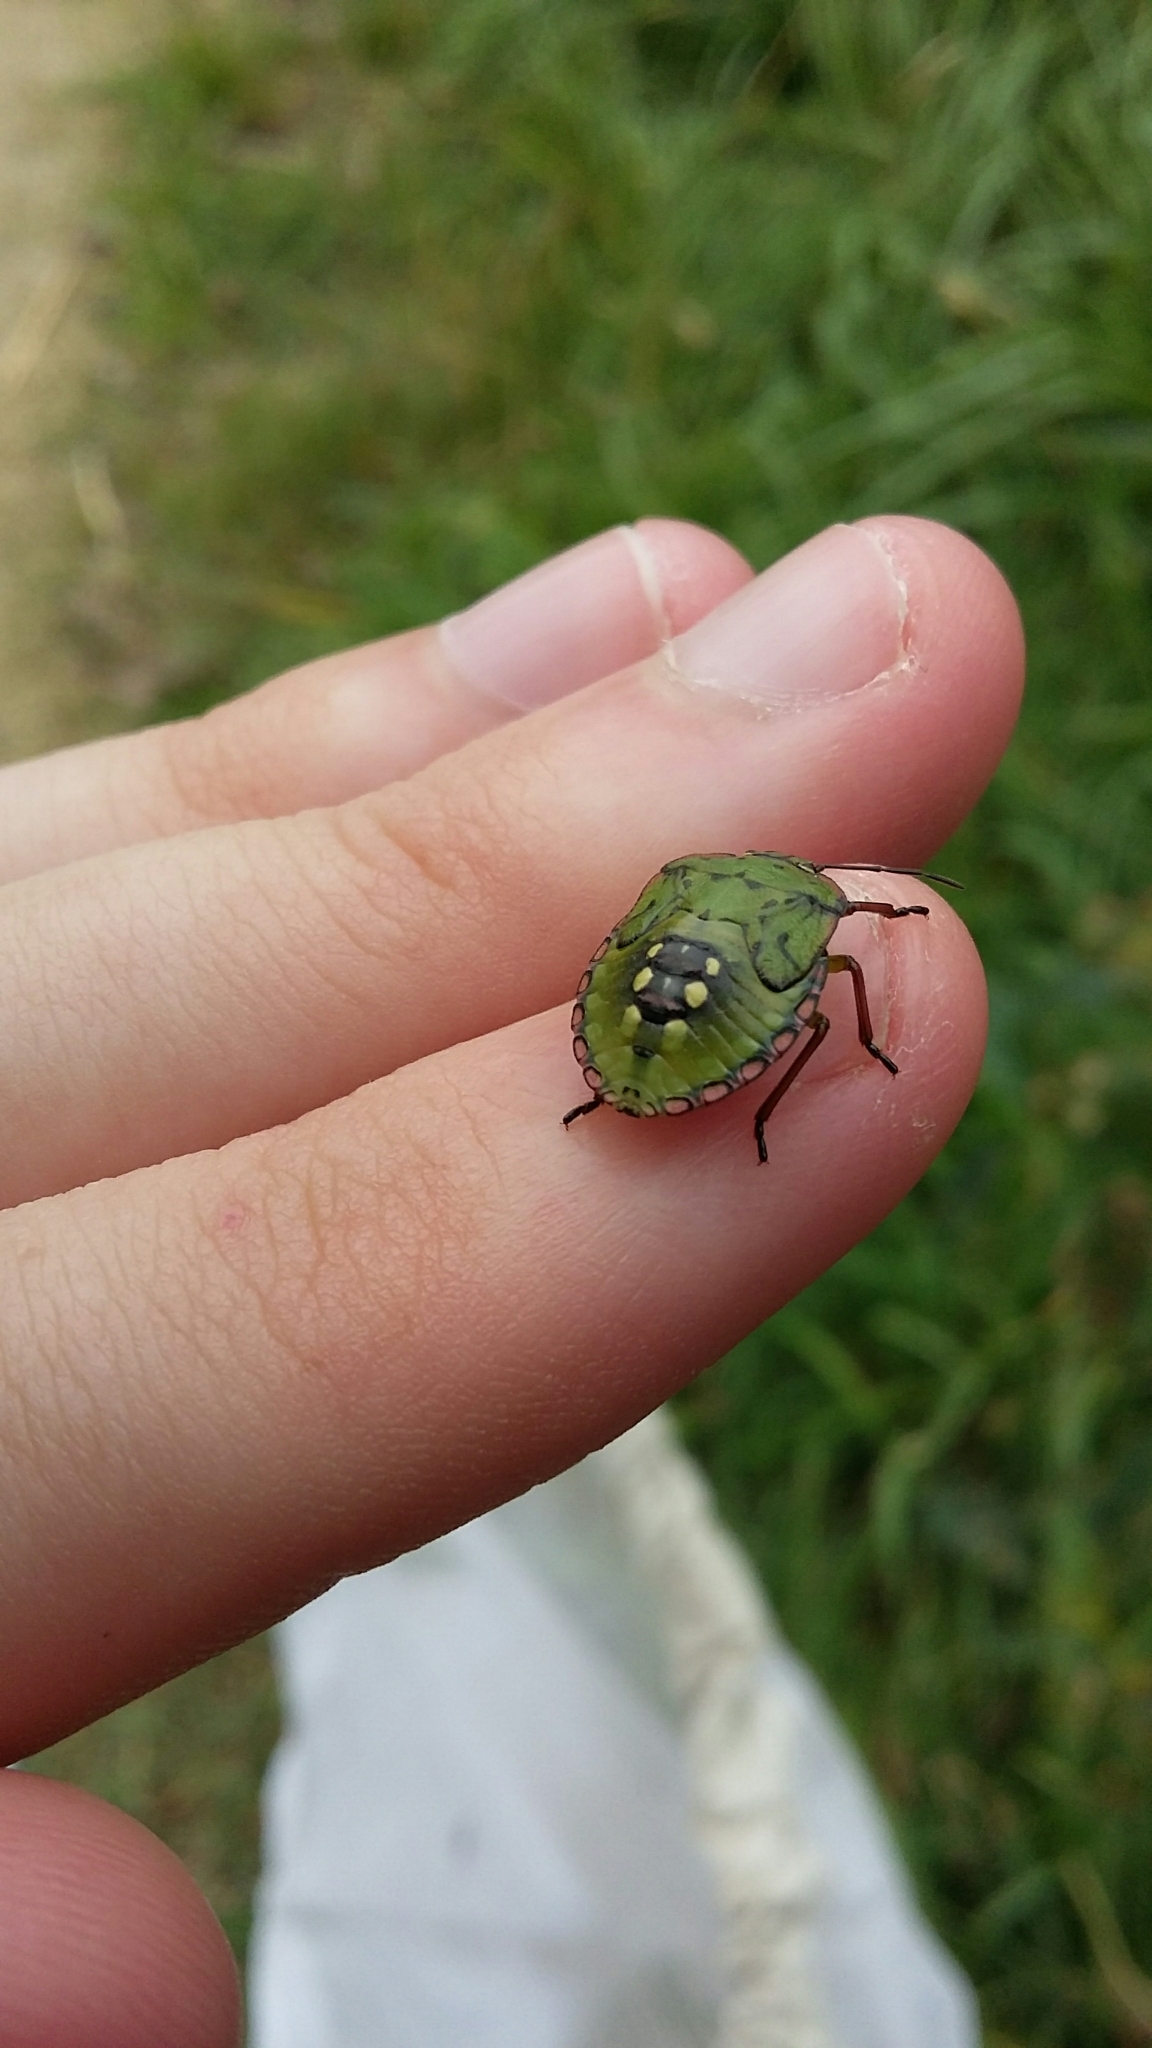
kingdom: Animalia
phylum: Arthropoda
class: Insecta
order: Hemiptera
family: Pentatomidae
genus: Nezara
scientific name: Nezara viridula
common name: Southern green stink bug
